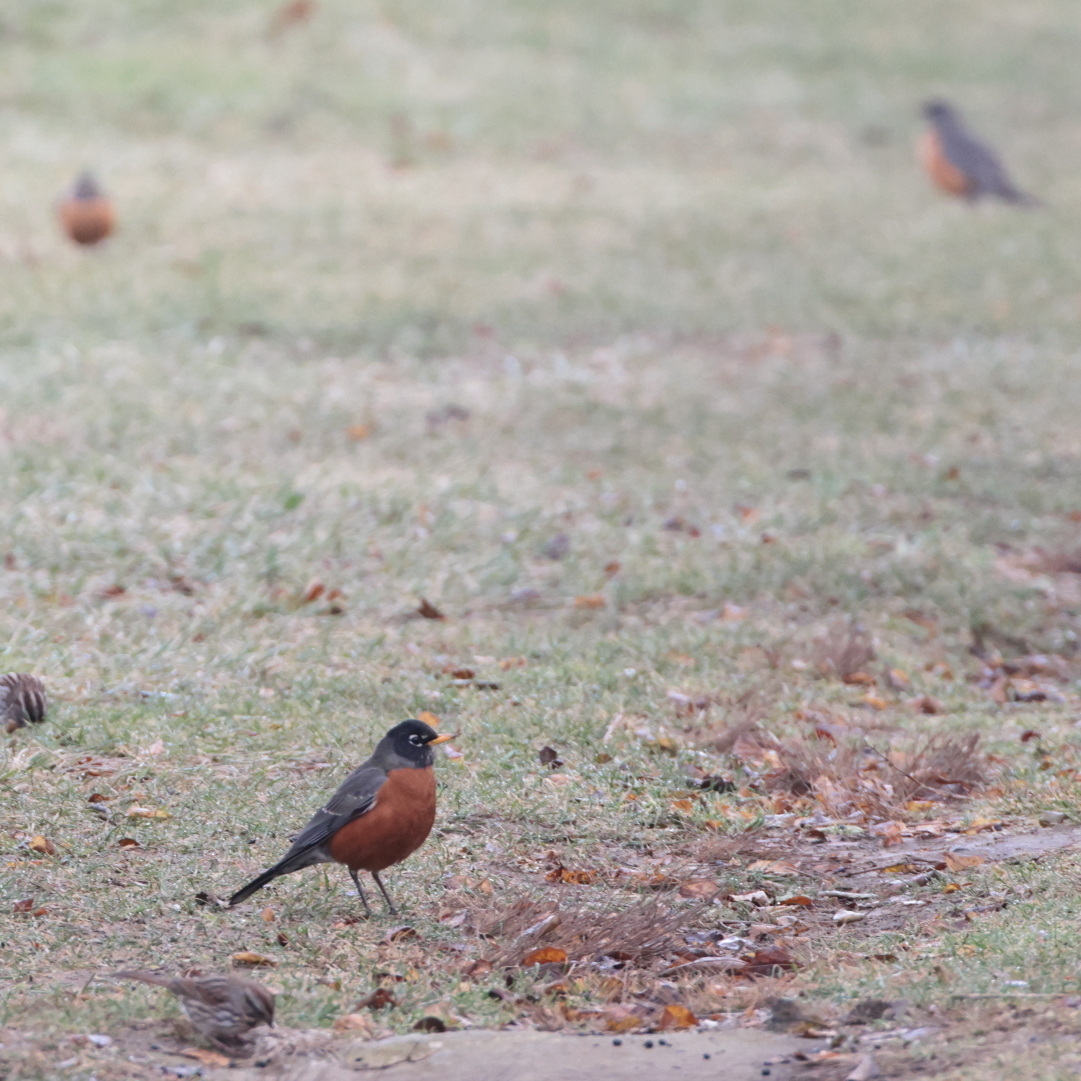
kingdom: Animalia
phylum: Chordata
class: Aves
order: Passeriformes
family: Turdidae
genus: Turdus
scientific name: Turdus migratorius
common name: American robin
